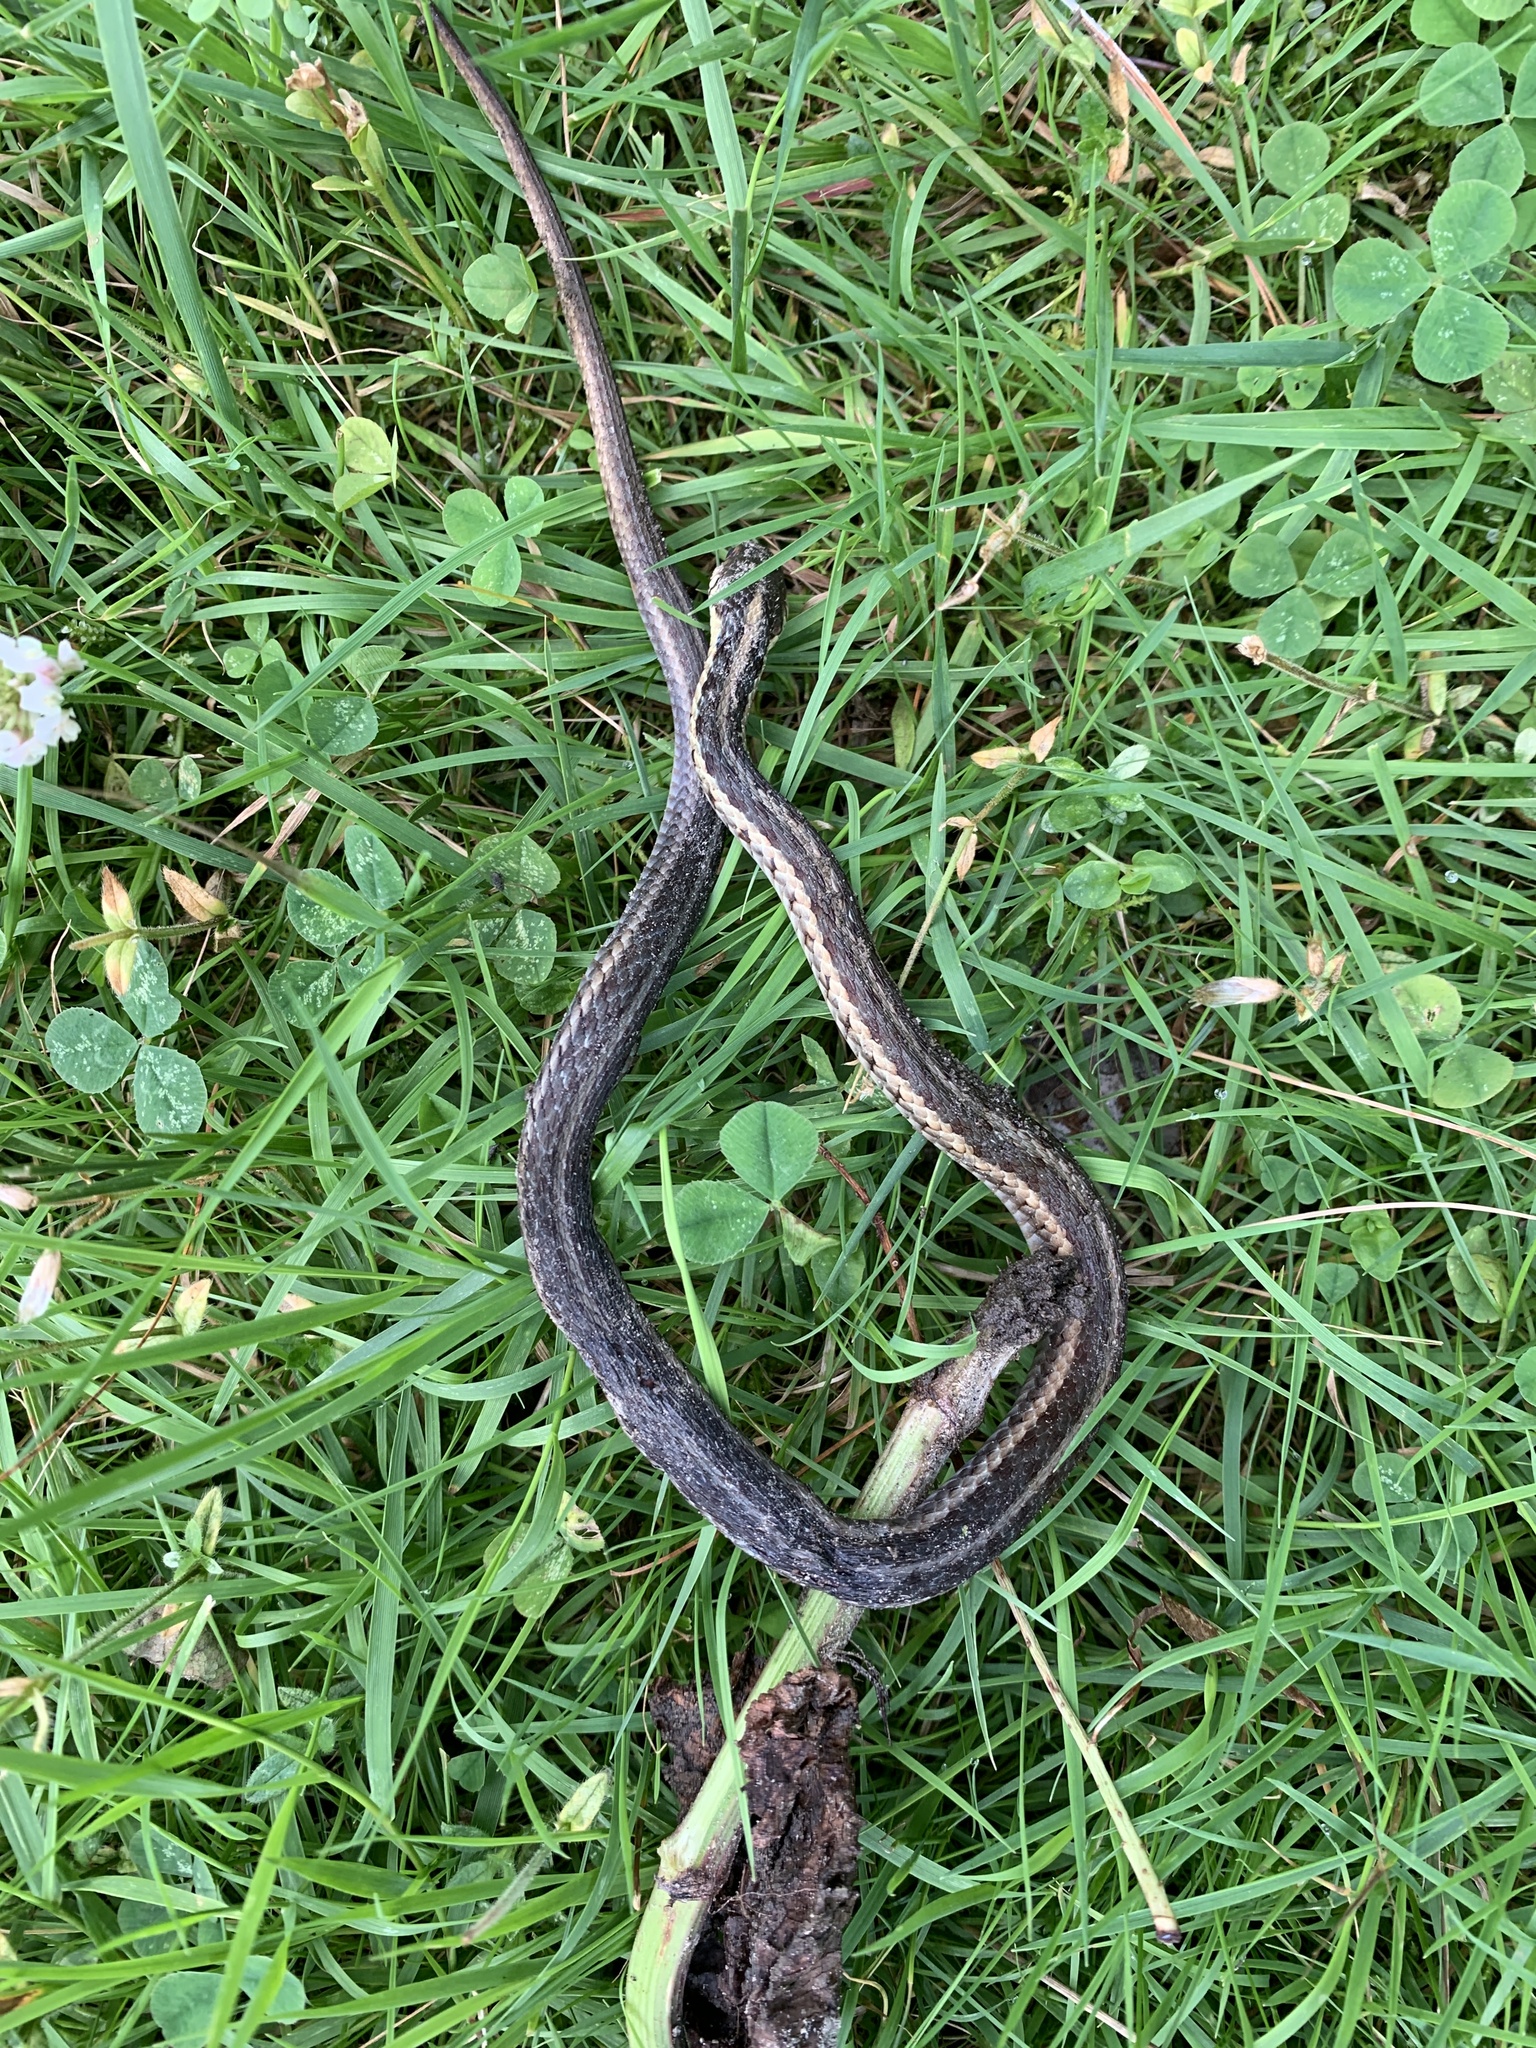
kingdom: Animalia
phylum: Chordata
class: Squamata
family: Colubridae
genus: Thamnophis
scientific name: Thamnophis sirtalis
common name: Common garter snake
